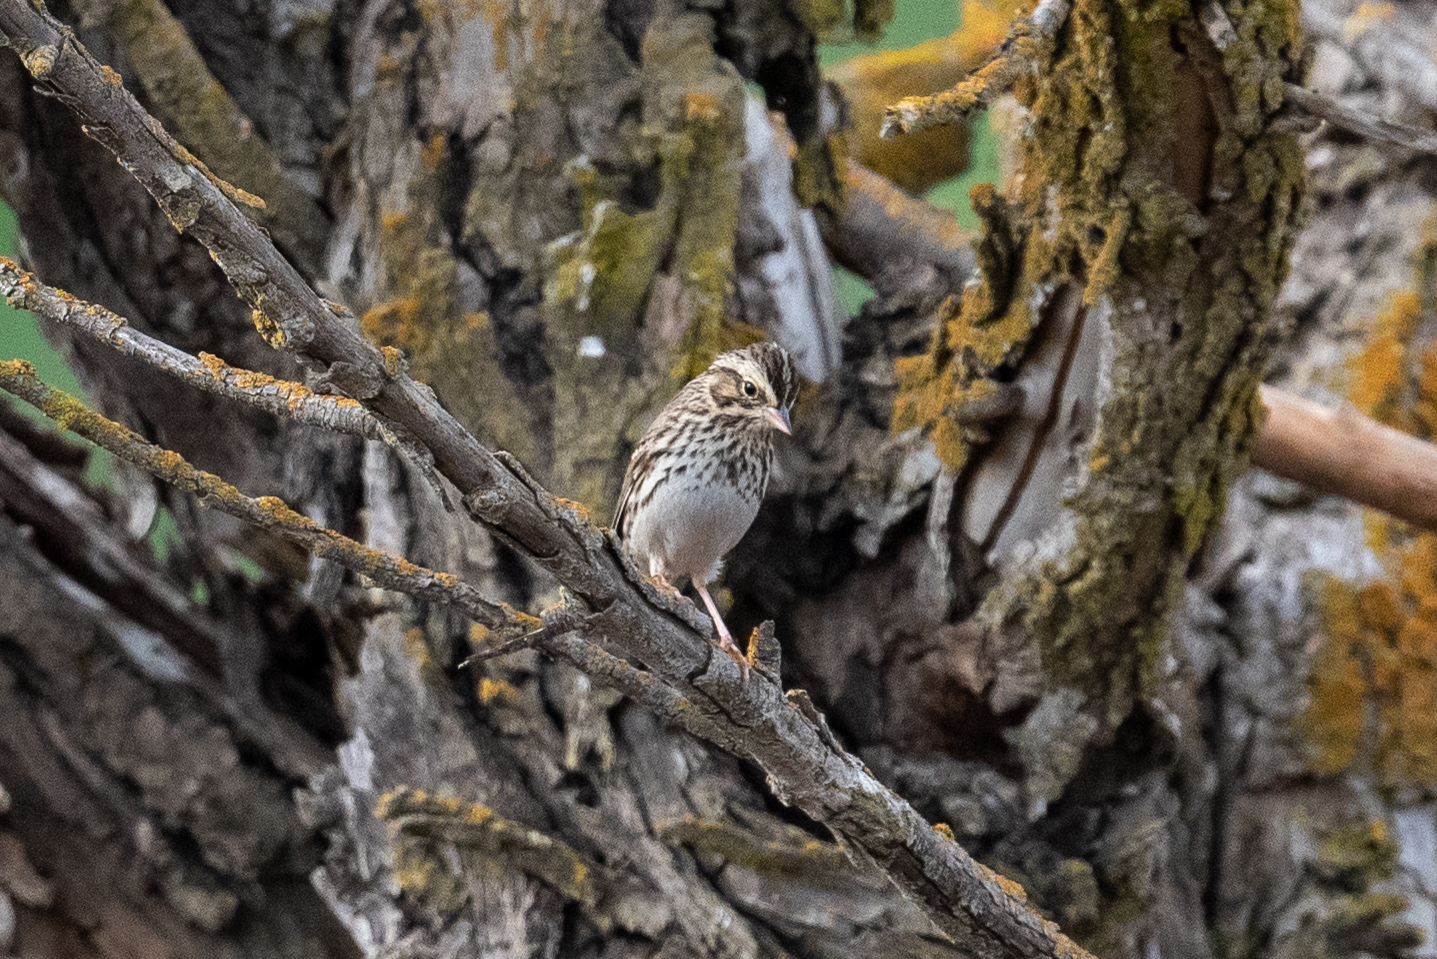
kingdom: Animalia
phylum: Chordata
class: Aves
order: Passeriformes
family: Passerellidae
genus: Passerculus
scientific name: Passerculus sandwichensis
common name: Savannah sparrow
